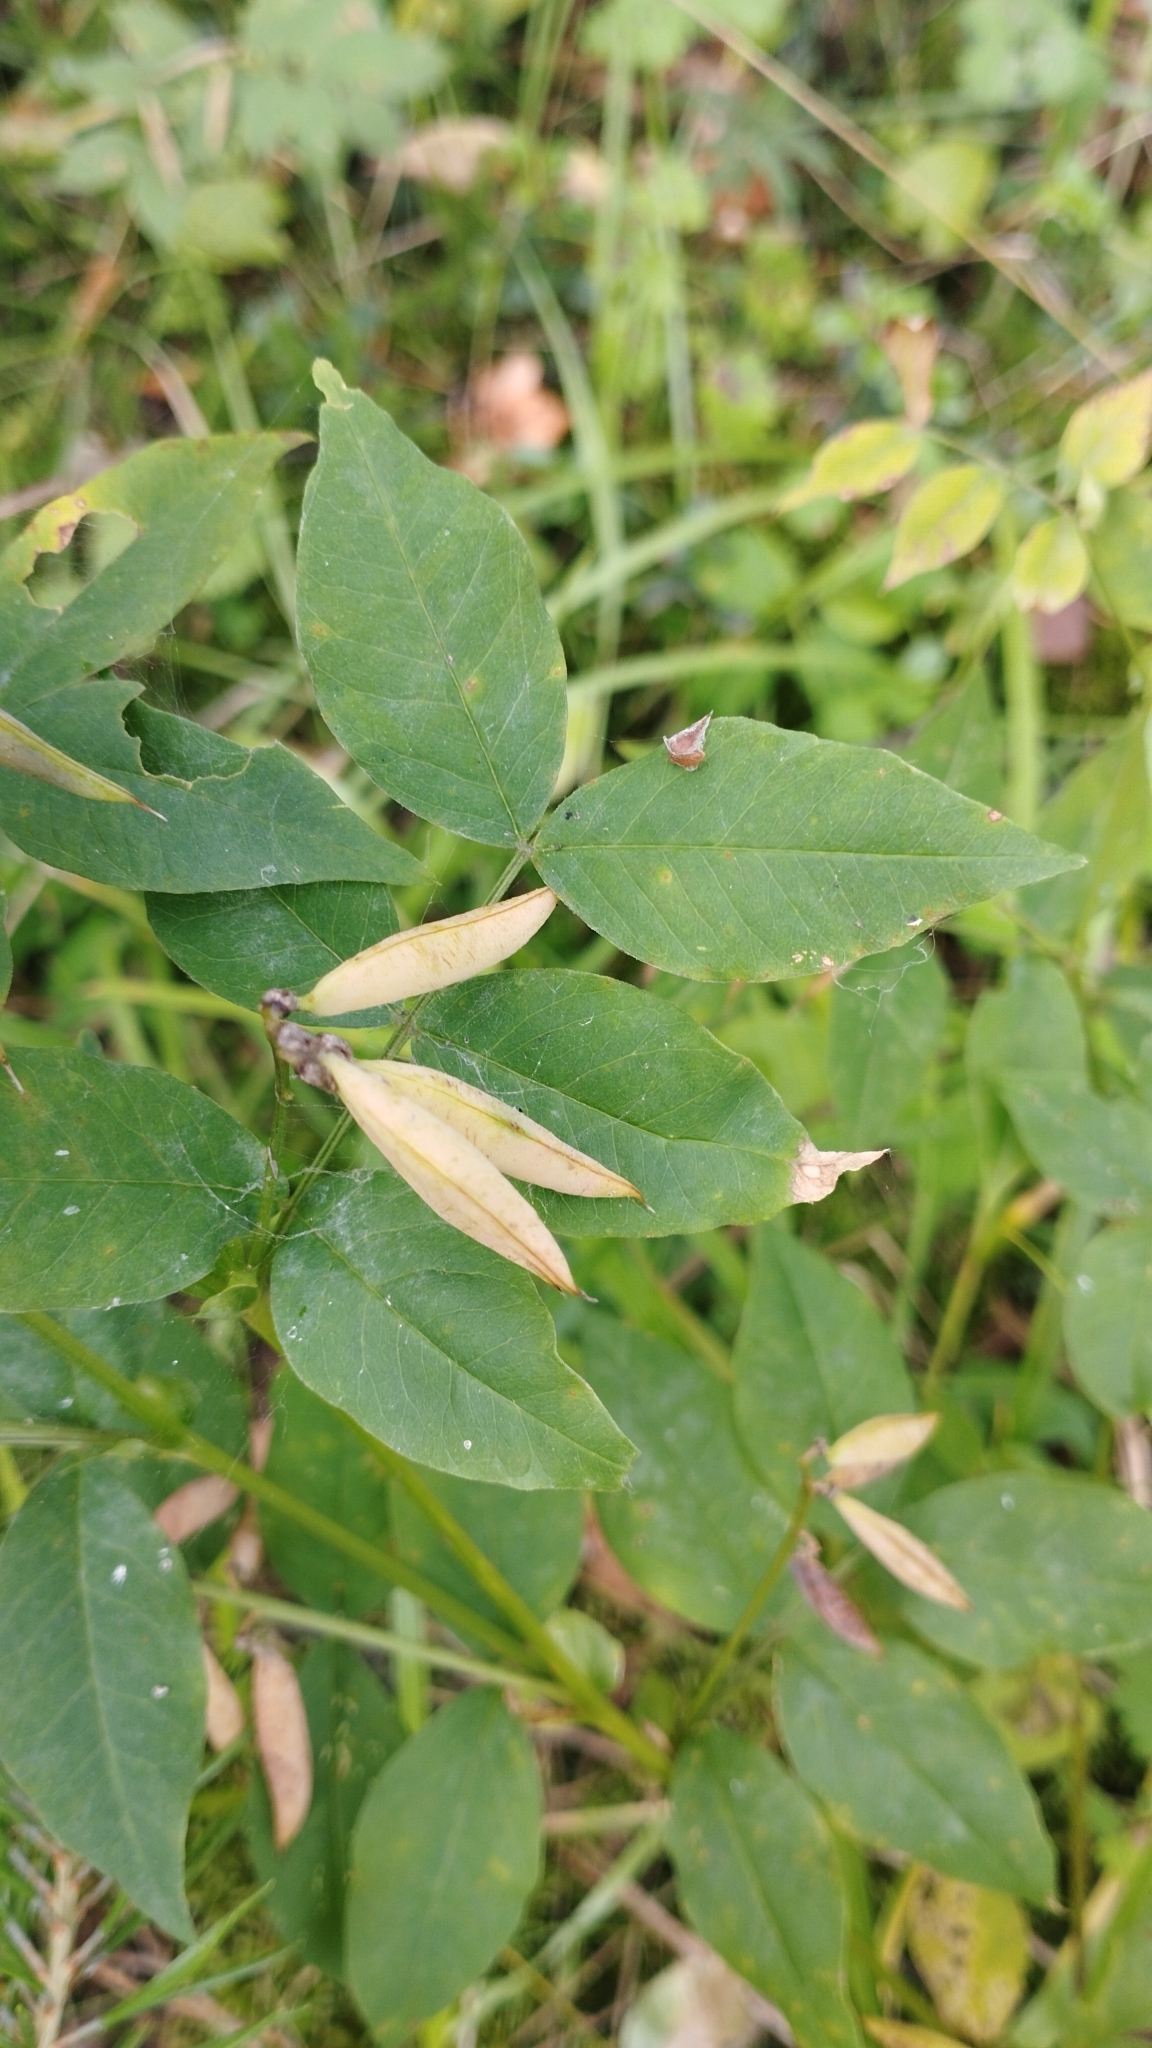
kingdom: Plantae
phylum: Tracheophyta
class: Magnoliopsida
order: Fabales
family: Fabaceae
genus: Vicia
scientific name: Vicia ramuliflora
